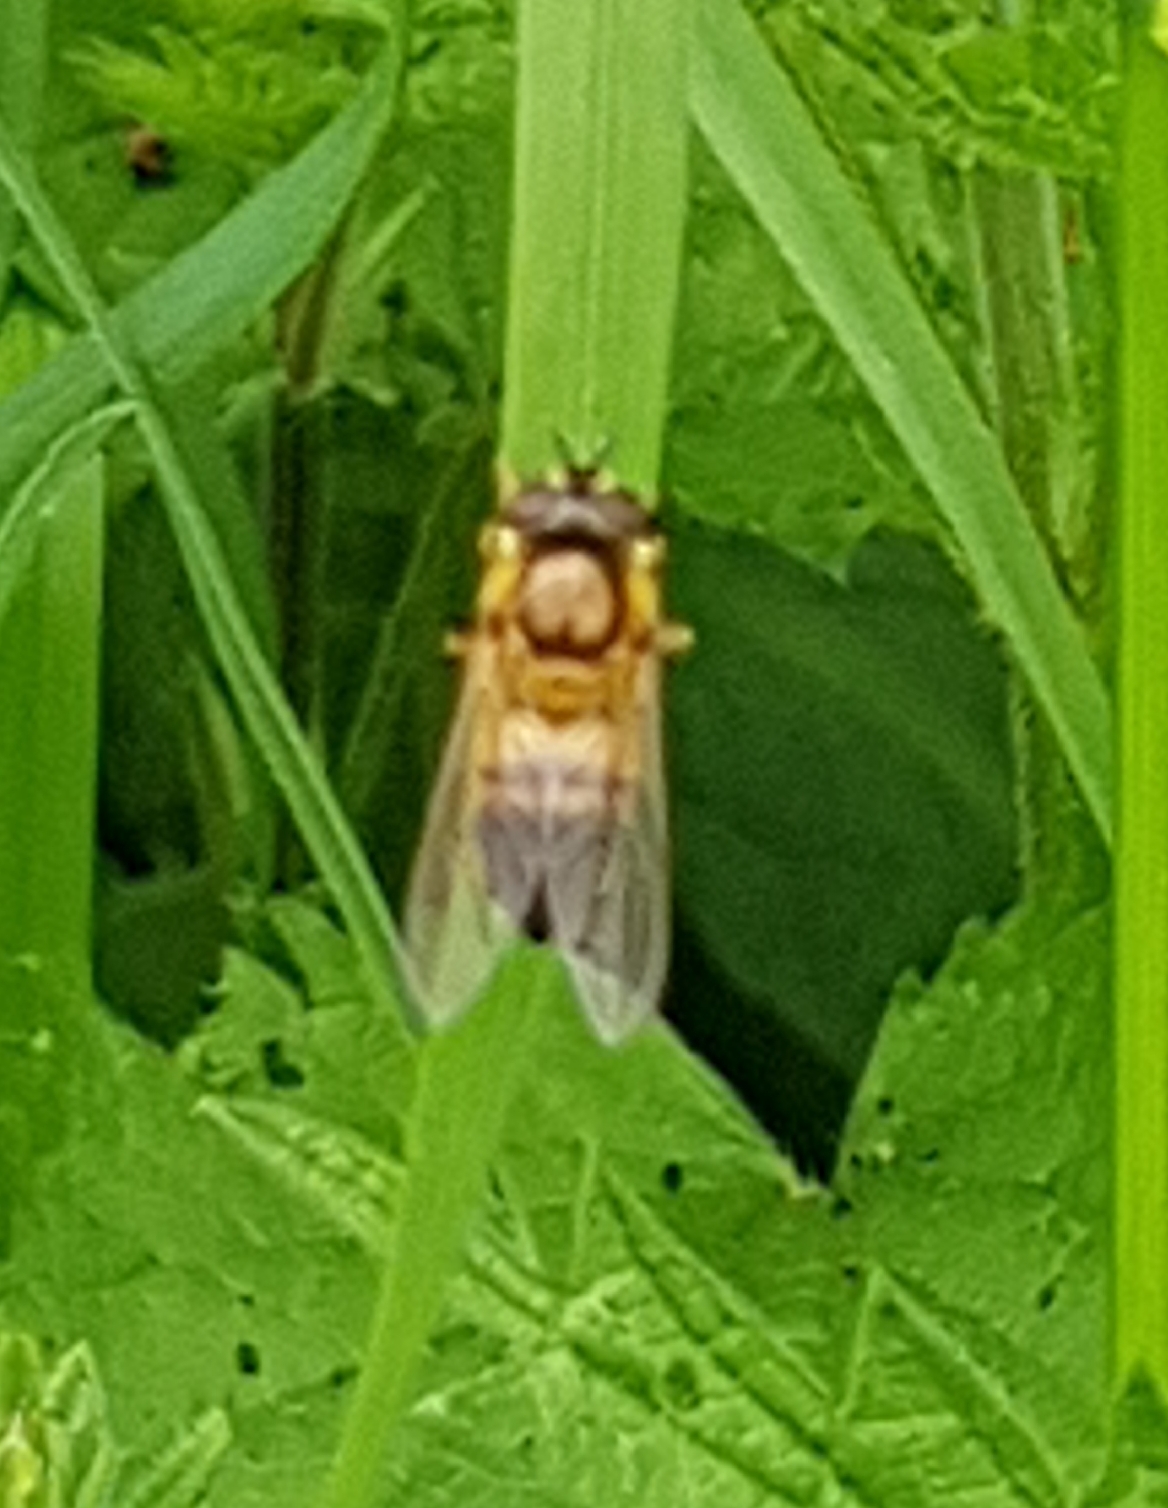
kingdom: Animalia
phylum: Arthropoda
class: Insecta
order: Diptera
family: Syrphidae
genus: Epistrophe
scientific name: Epistrophe eligans
